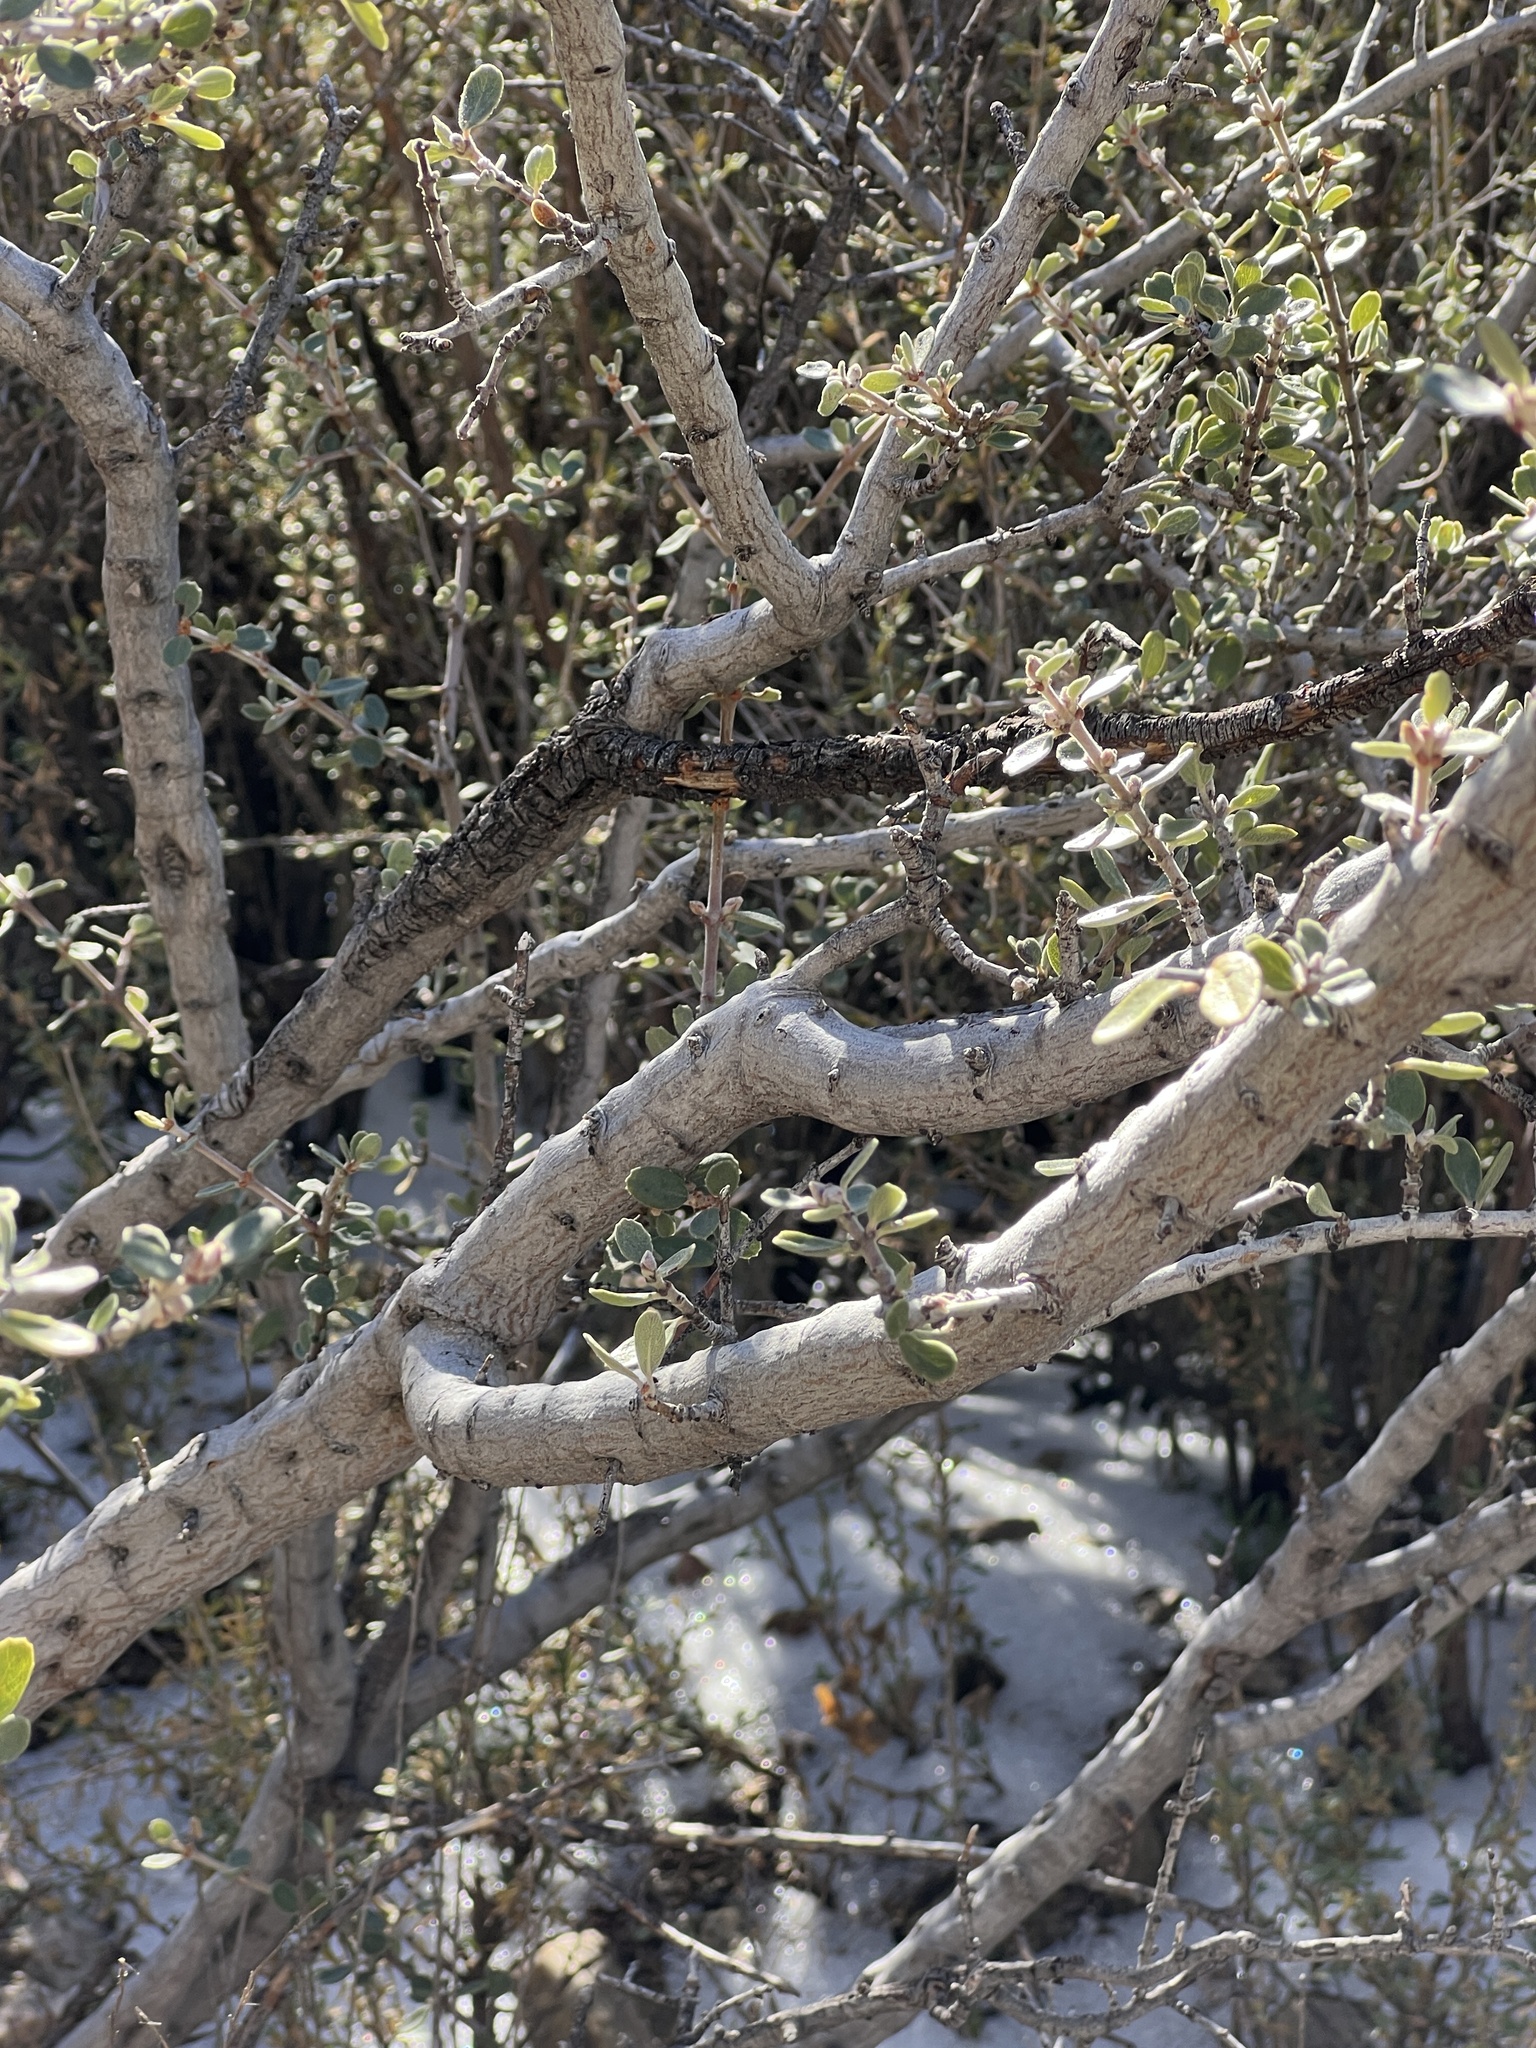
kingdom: Plantae
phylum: Tracheophyta
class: Magnoliopsida
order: Rosales
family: Rhamnaceae
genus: Ceanothus
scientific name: Ceanothus pauciflorus
